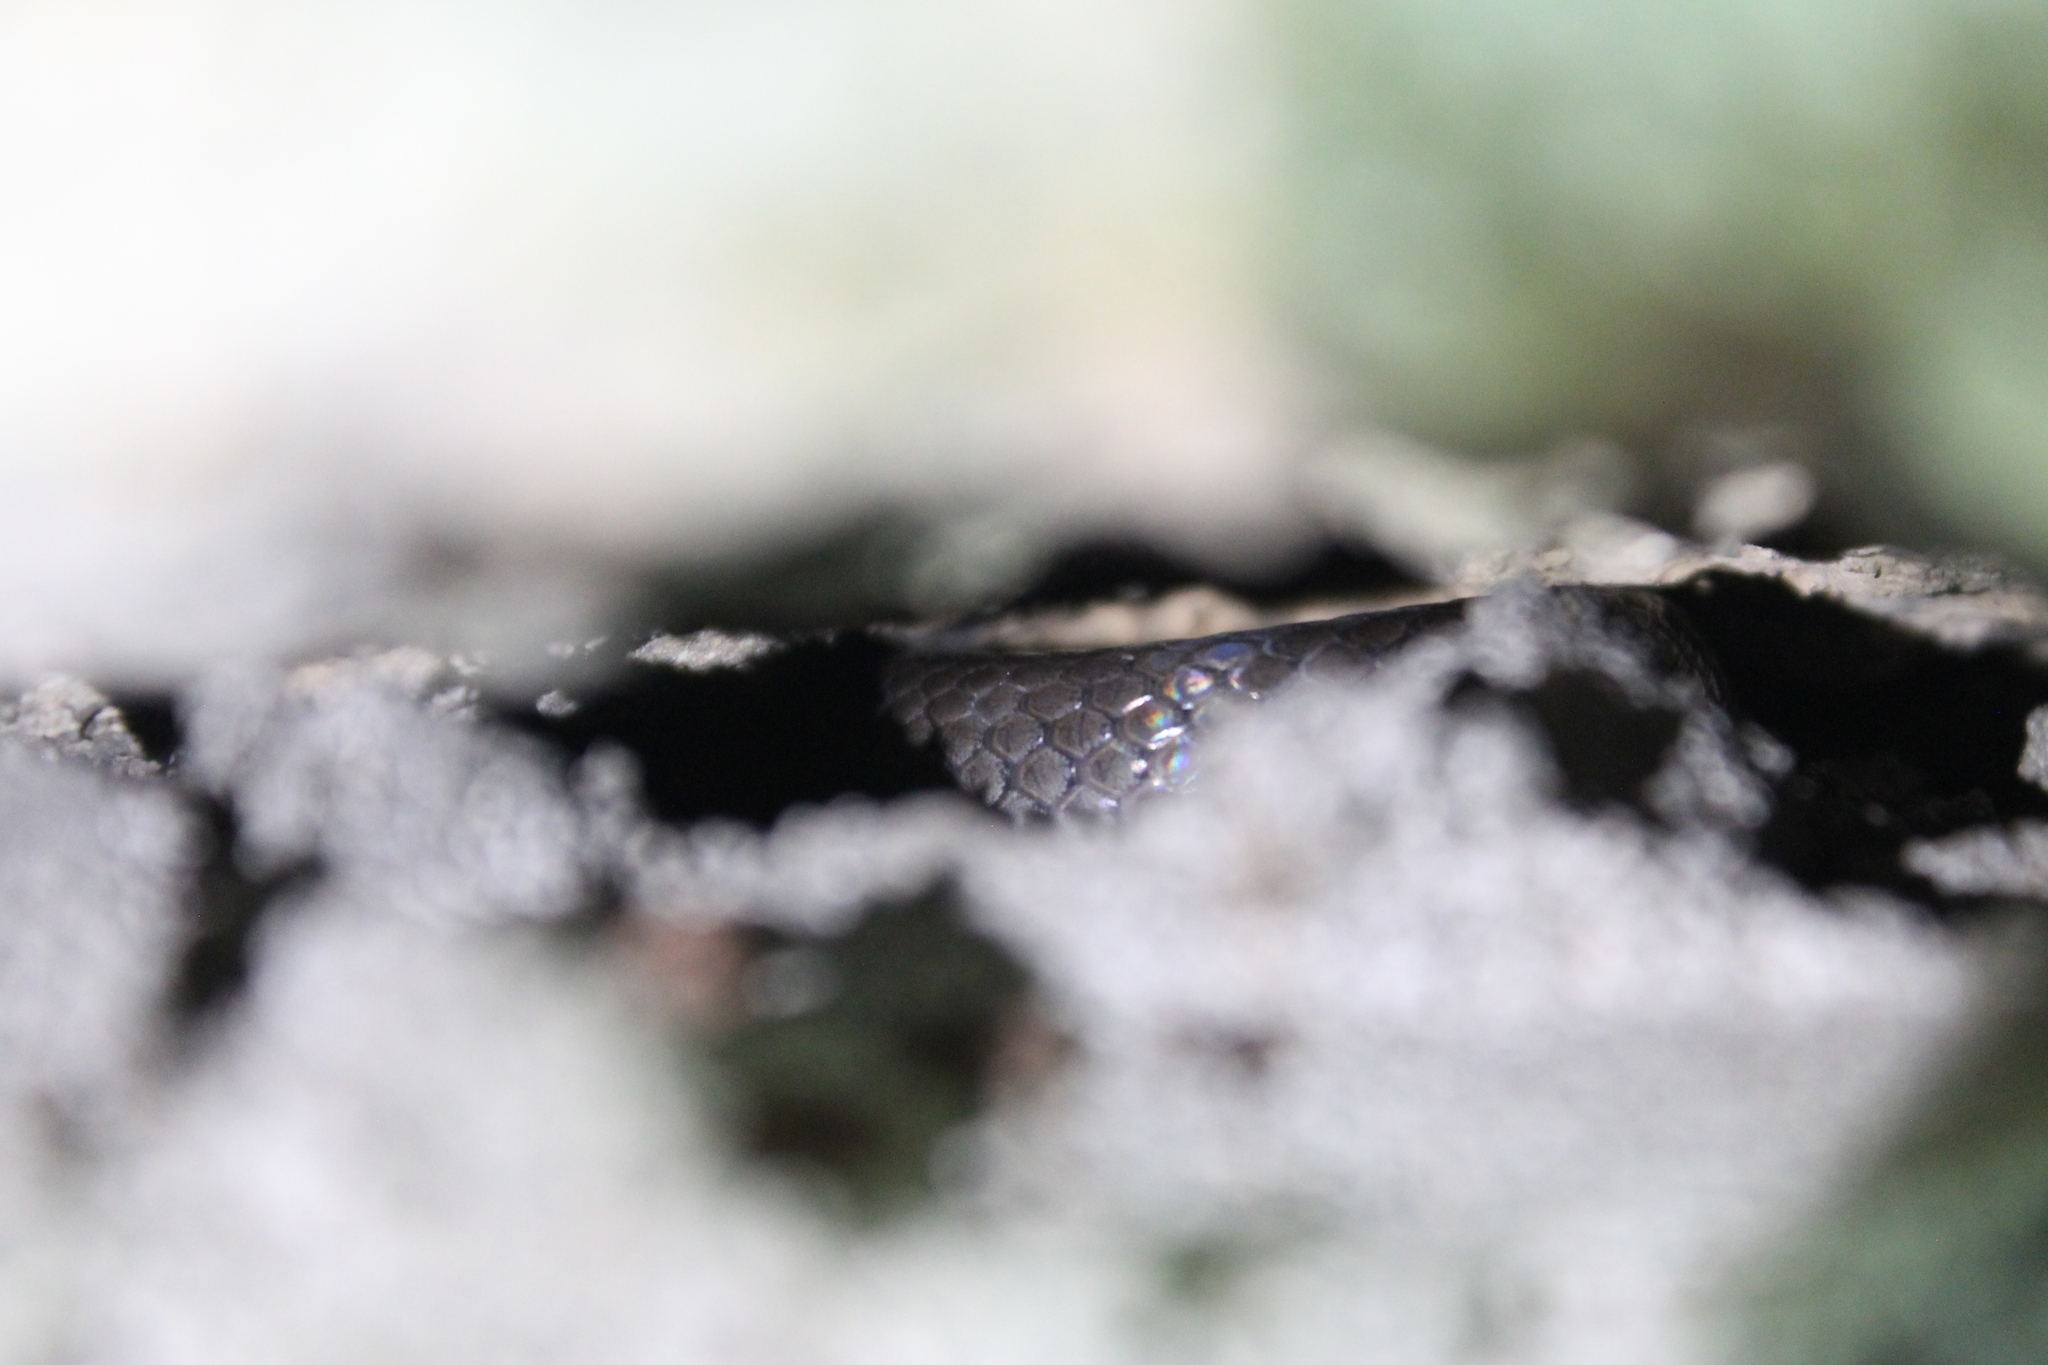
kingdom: Animalia
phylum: Chordata
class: Squamata
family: Colubridae
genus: Diadophis
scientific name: Diadophis punctatus
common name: Ringneck snake
